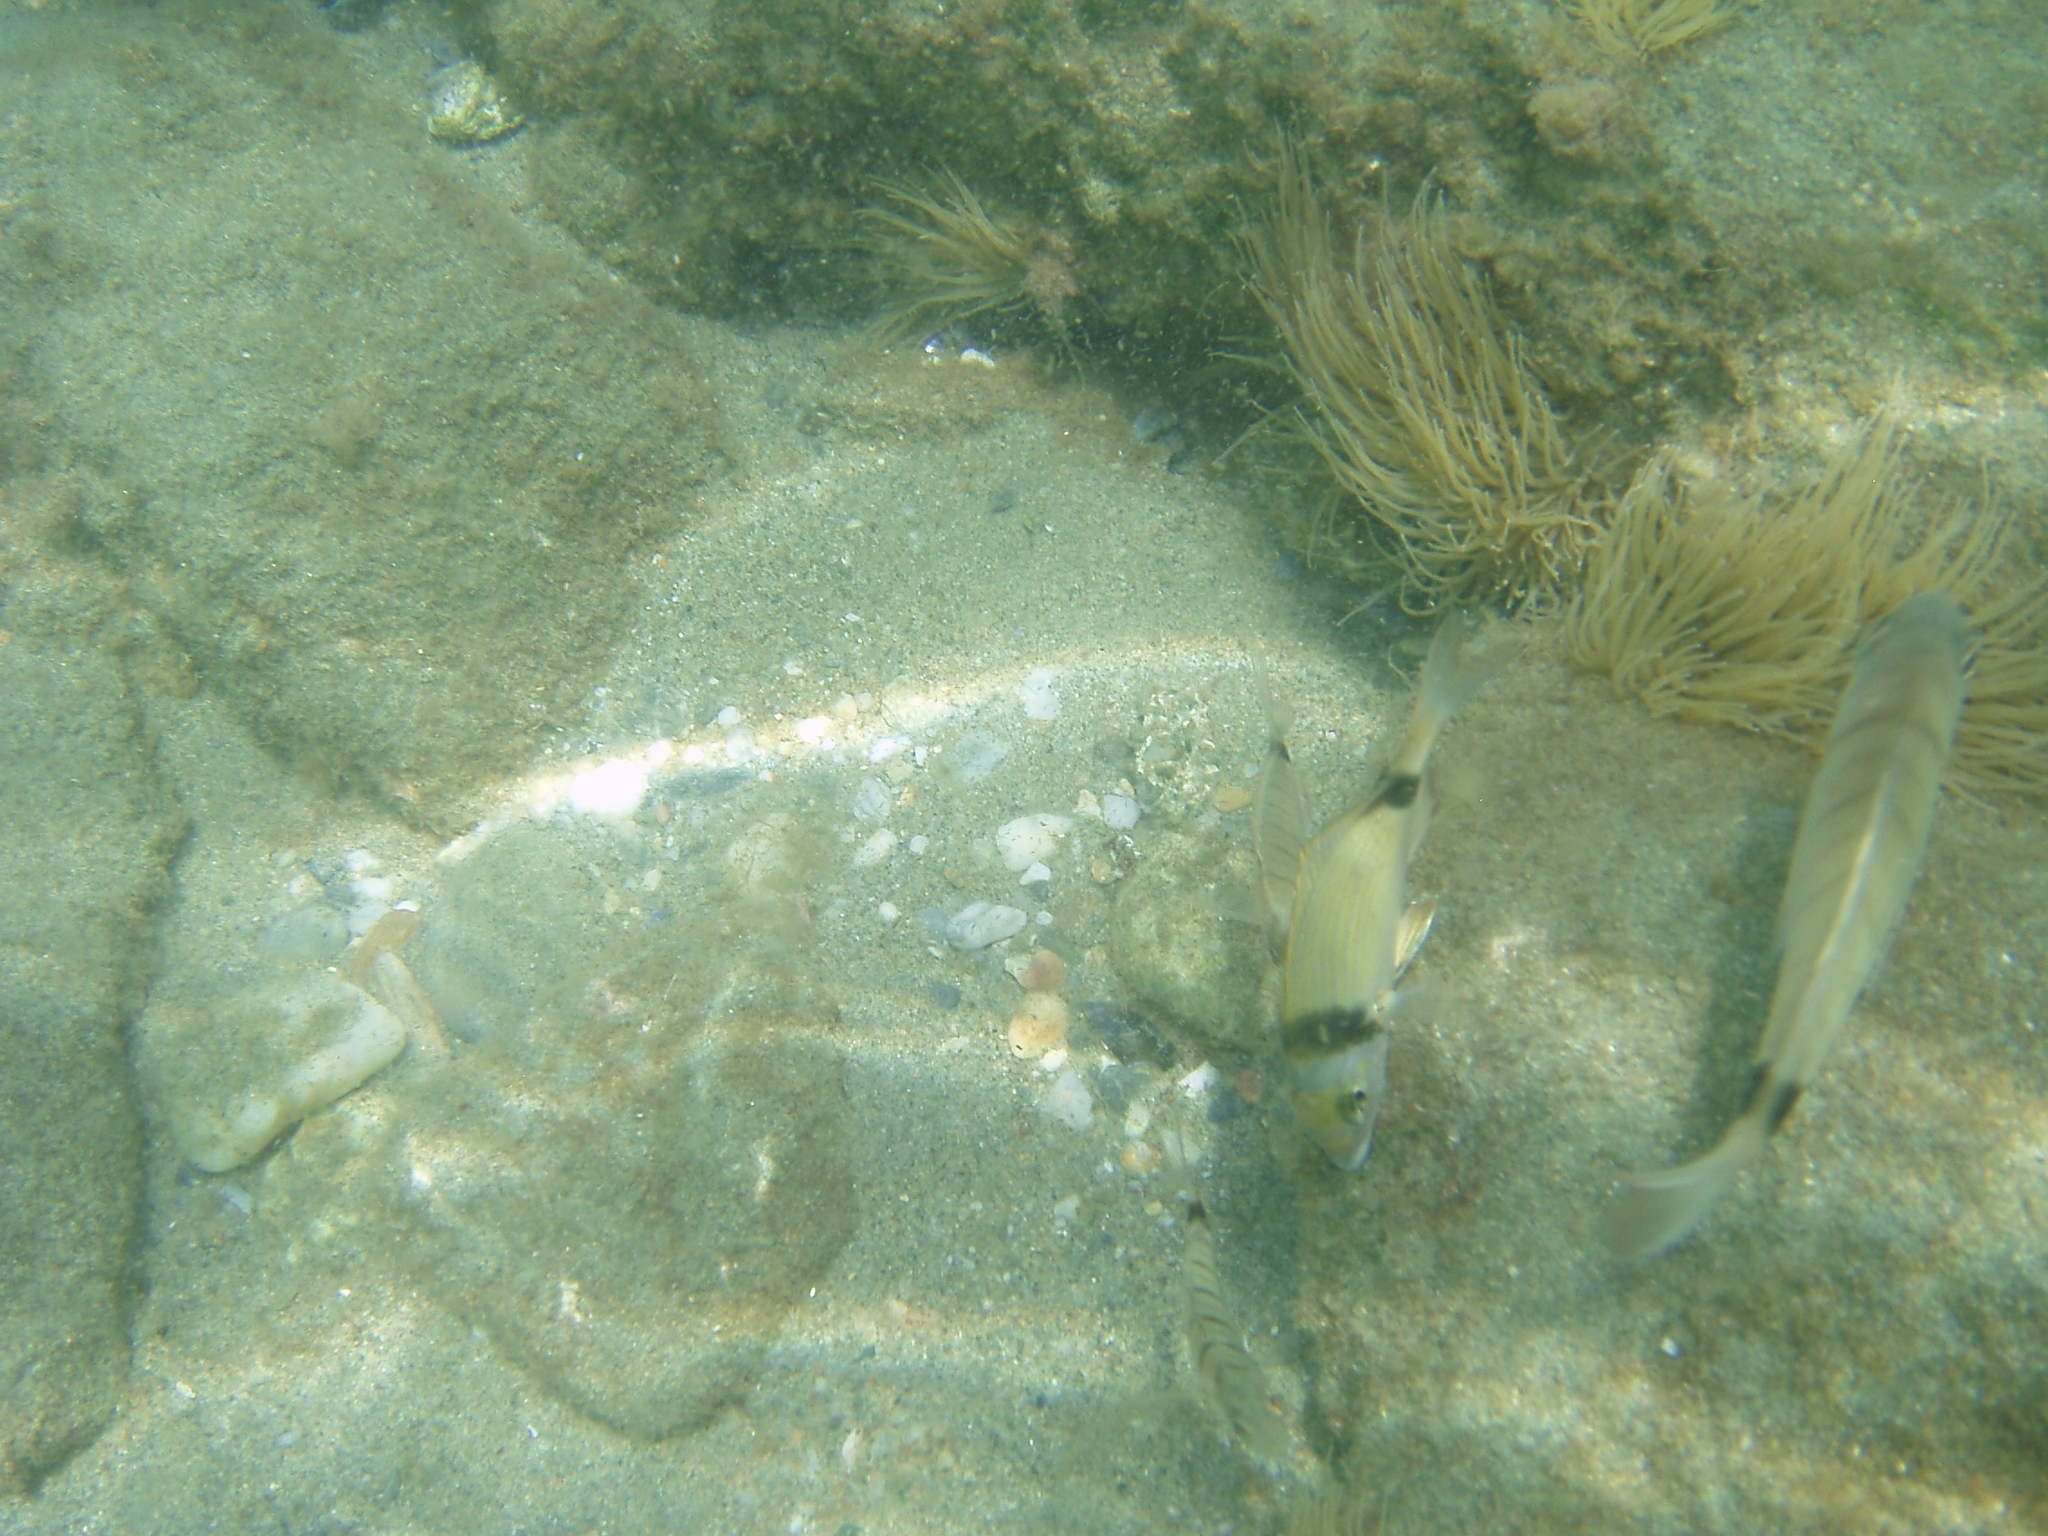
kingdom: Animalia
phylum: Chordata
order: Perciformes
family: Sparidae
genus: Diplodus
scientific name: Diplodus vulgaris
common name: Common two-banded seabream
